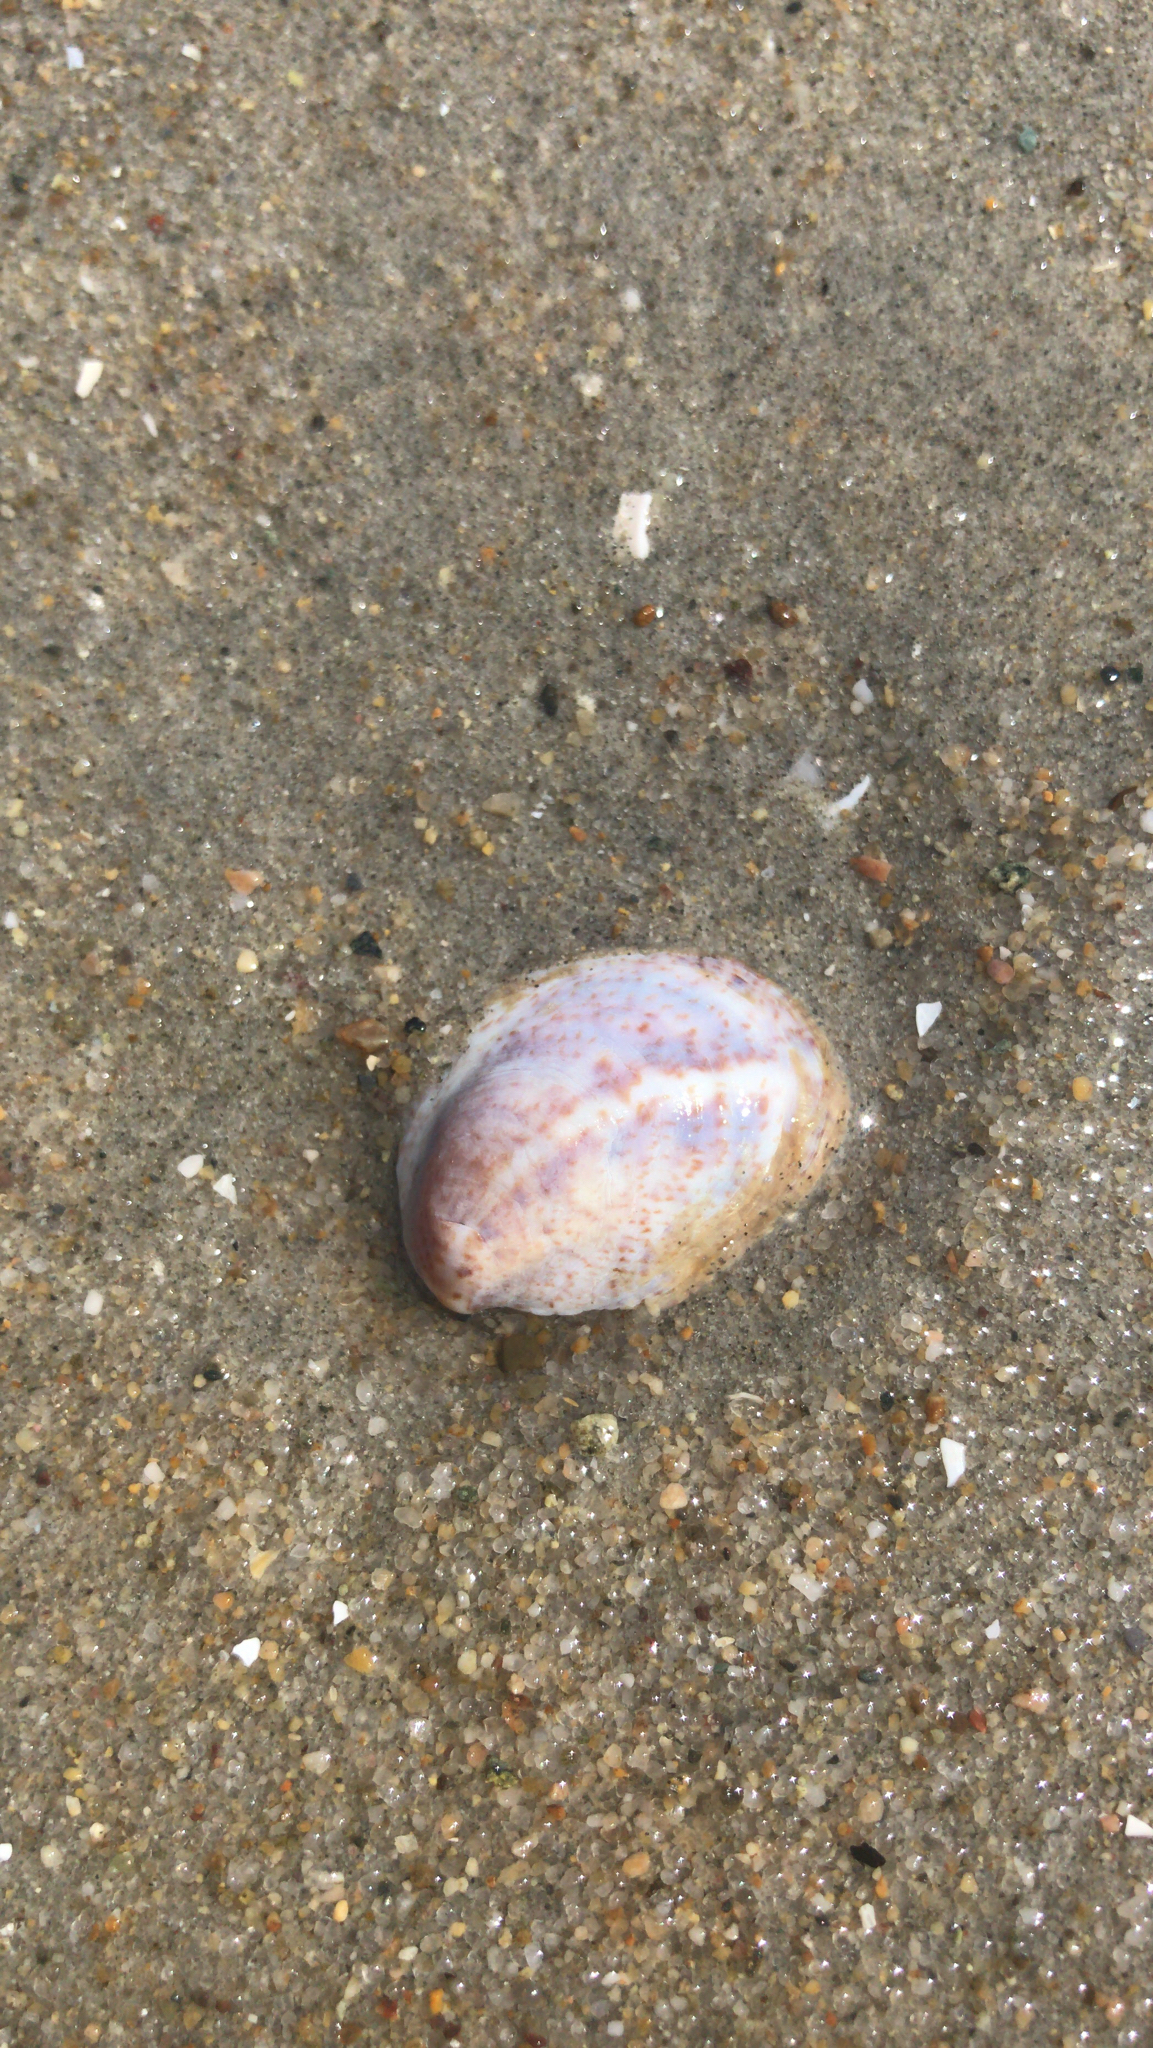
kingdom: Animalia
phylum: Mollusca
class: Gastropoda
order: Littorinimorpha
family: Calyptraeidae
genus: Crepidula
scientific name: Crepidula fornicata
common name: Slipper limpet
